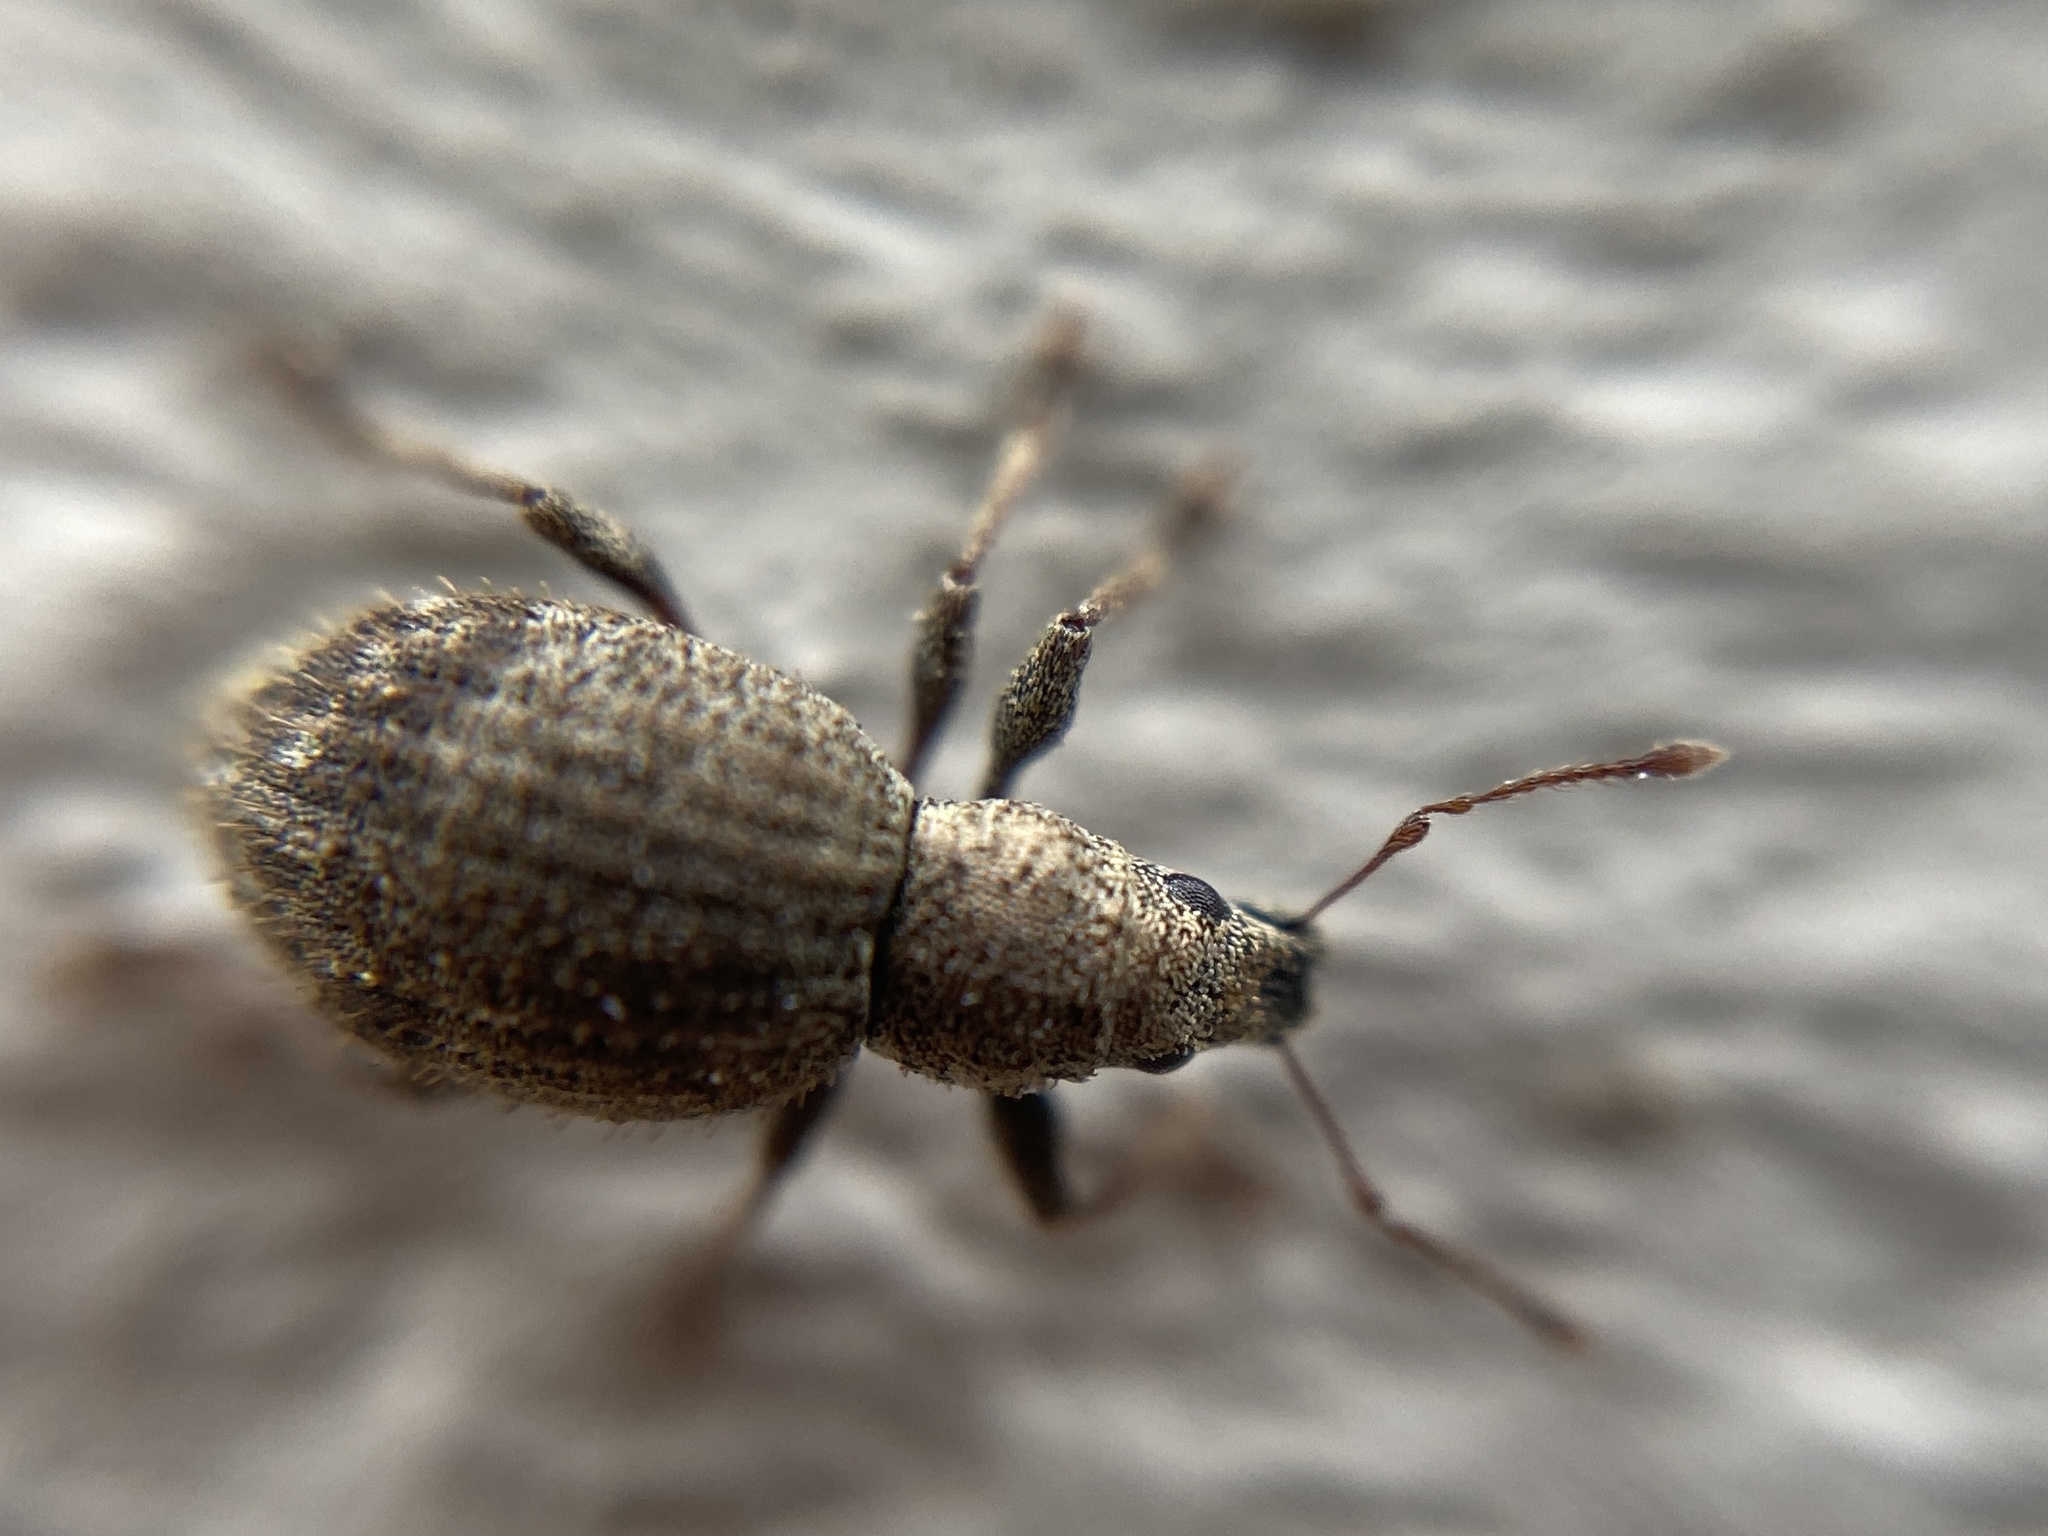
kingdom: Animalia
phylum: Arthropoda
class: Insecta
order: Coleoptera
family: Curculionidae
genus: Sciaphilus
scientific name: Sciaphilus asperatus
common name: Weevil
